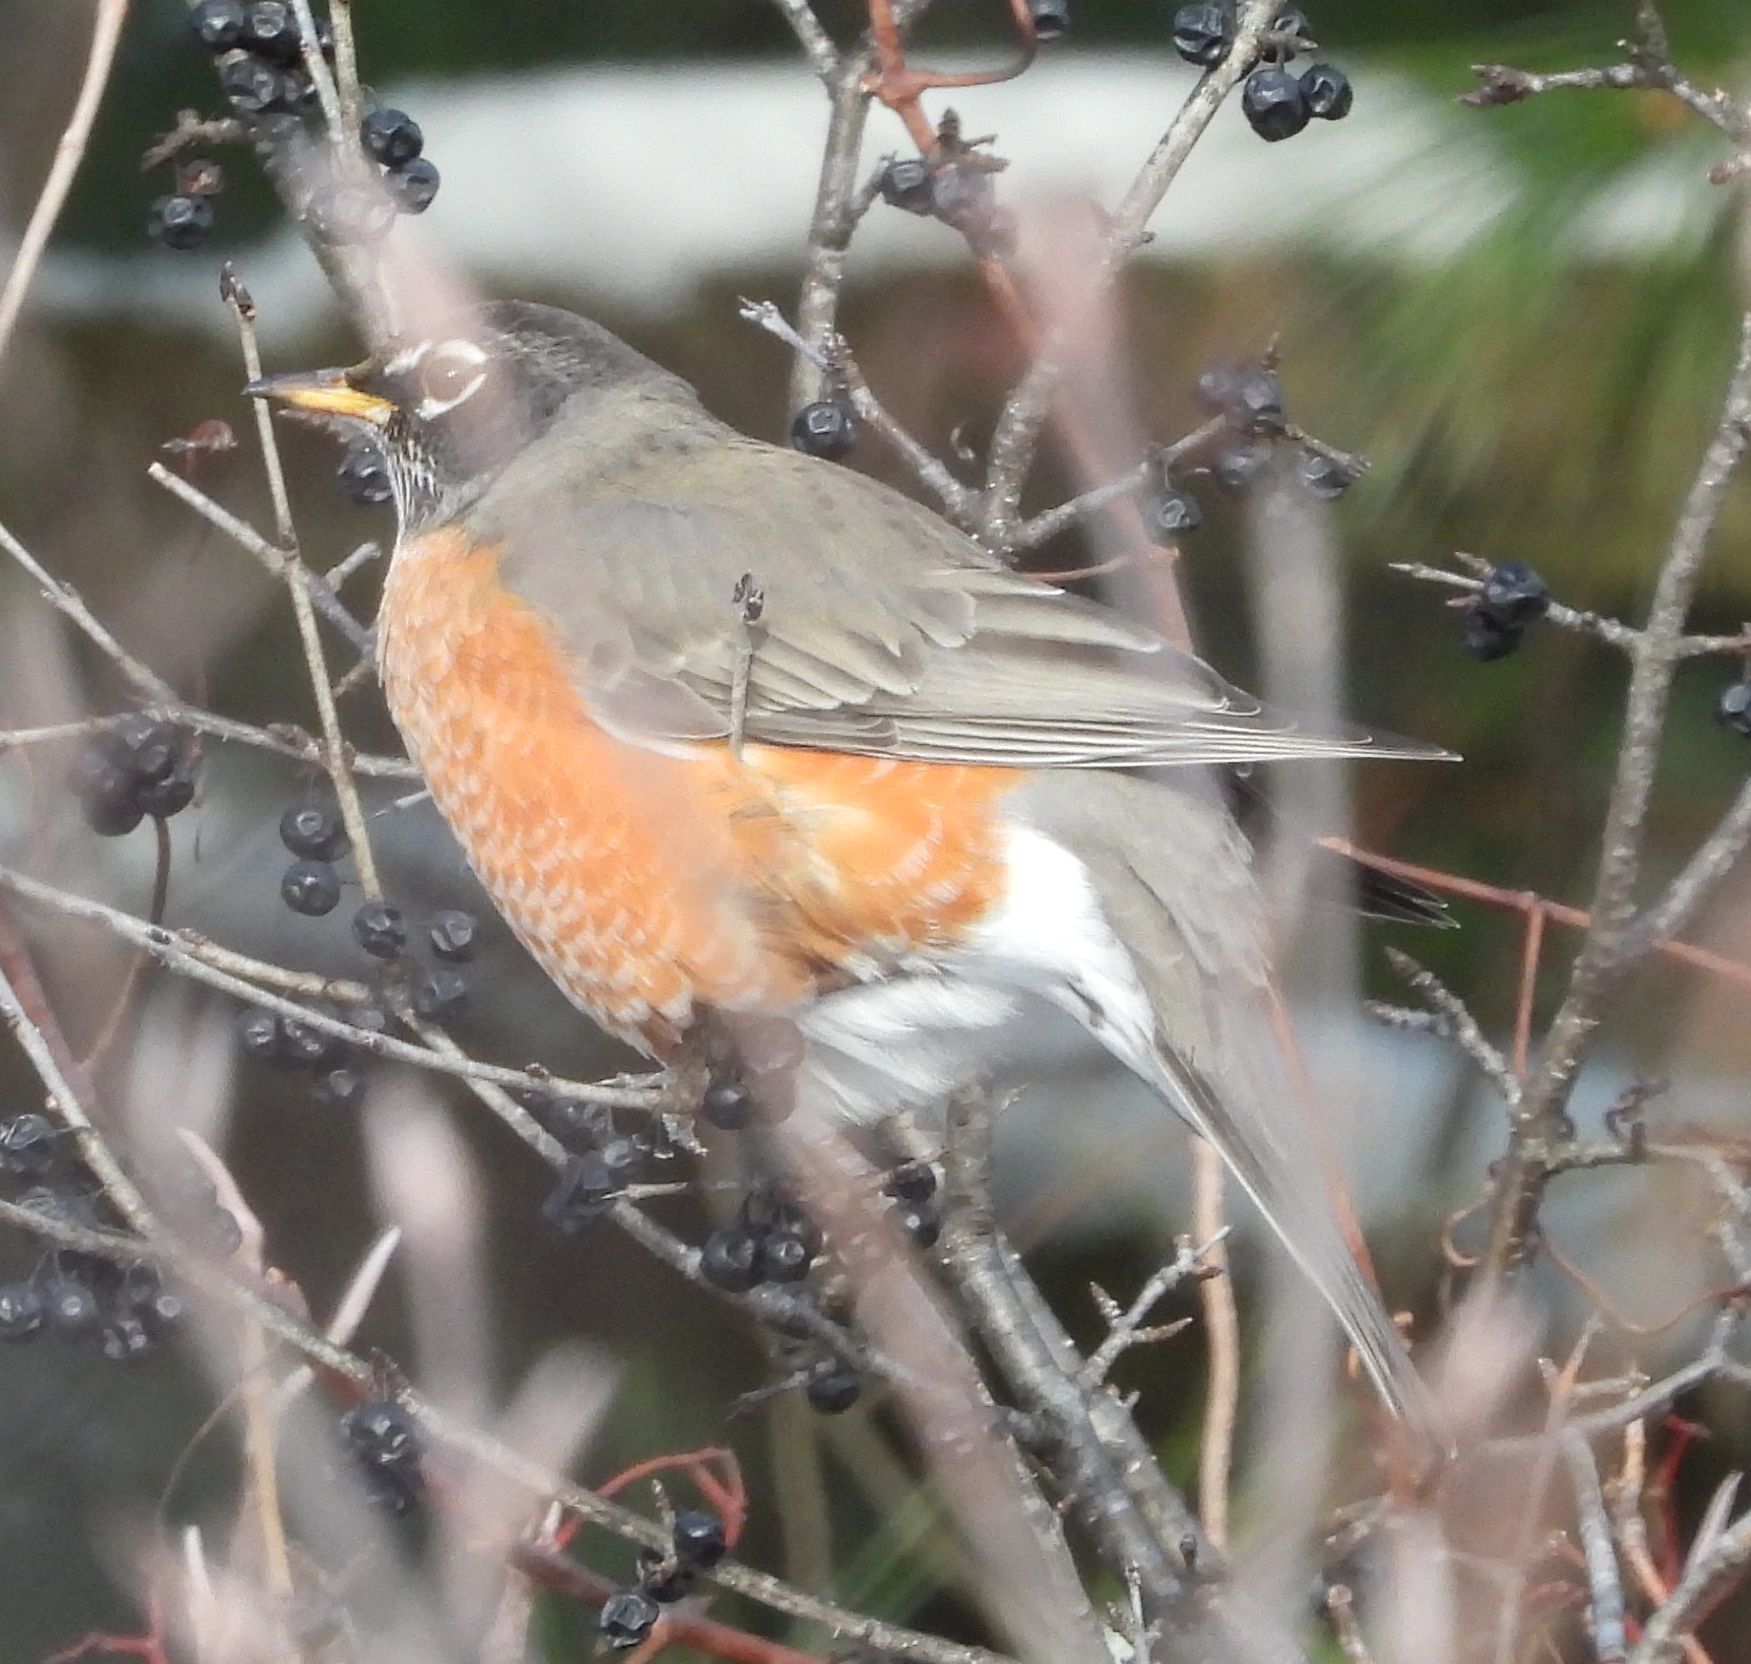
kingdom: Animalia
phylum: Chordata
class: Aves
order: Passeriformes
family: Turdidae
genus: Turdus
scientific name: Turdus migratorius
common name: American robin
